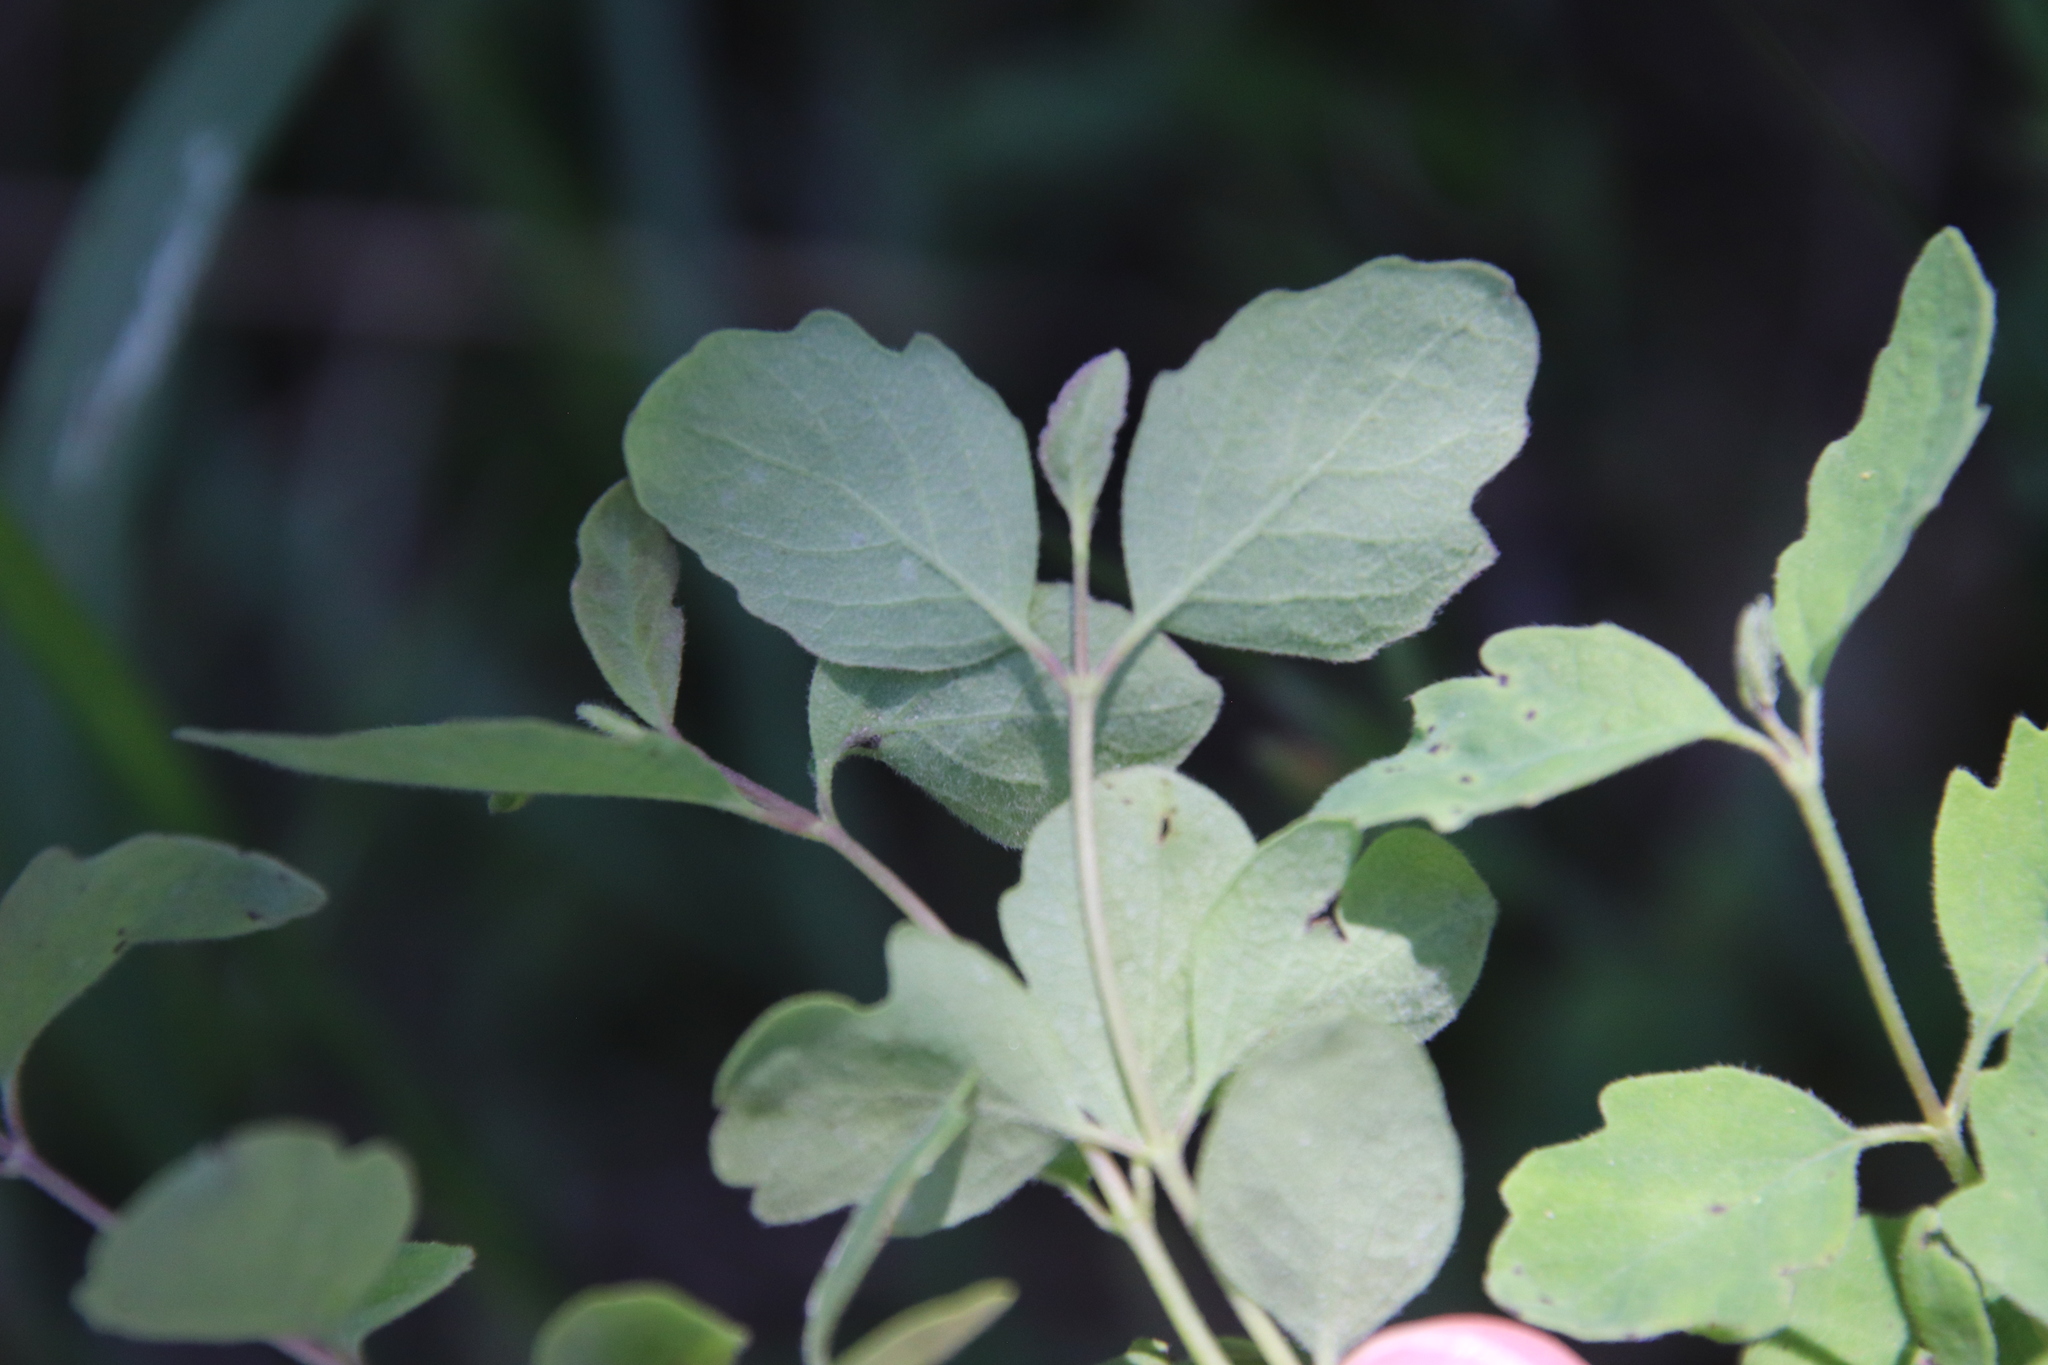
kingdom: Plantae
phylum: Tracheophyta
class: Magnoliopsida
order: Dipsacales
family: Caprifoliaceae
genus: Symphoricarpos
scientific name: Symphoricarpos mollis
